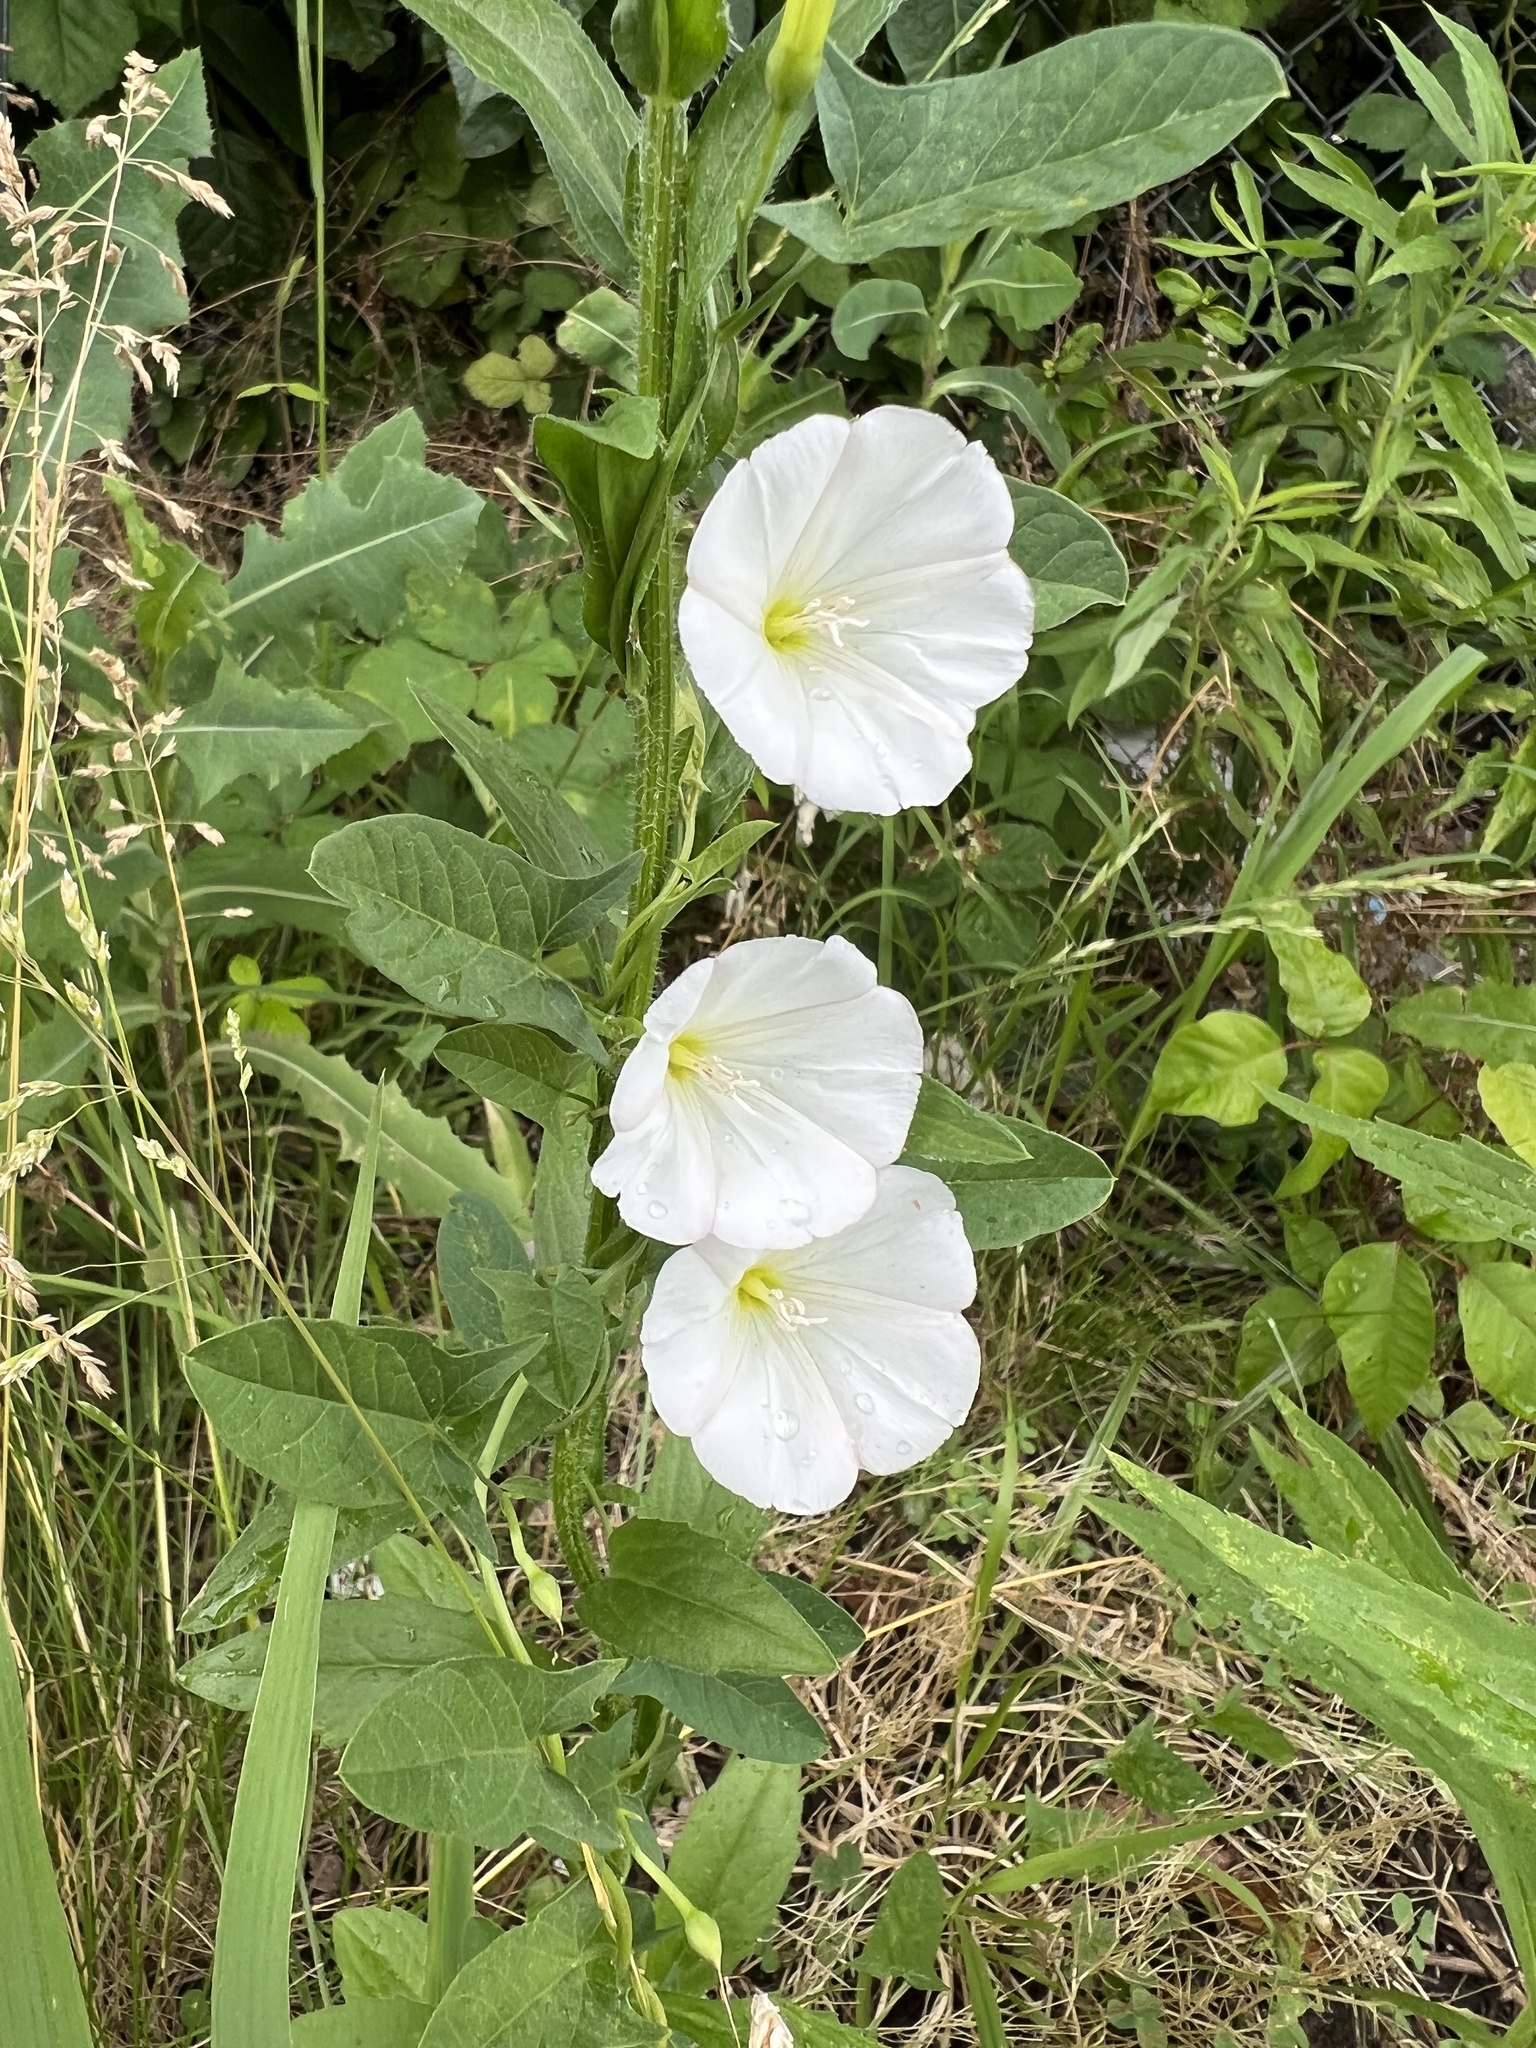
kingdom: Plantae
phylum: Tracheophyta
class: Magnoliopsida
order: Solanales
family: Convolvulaceae
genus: Convolvulus
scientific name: Convolvulus arvensis
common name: Field bindweed
